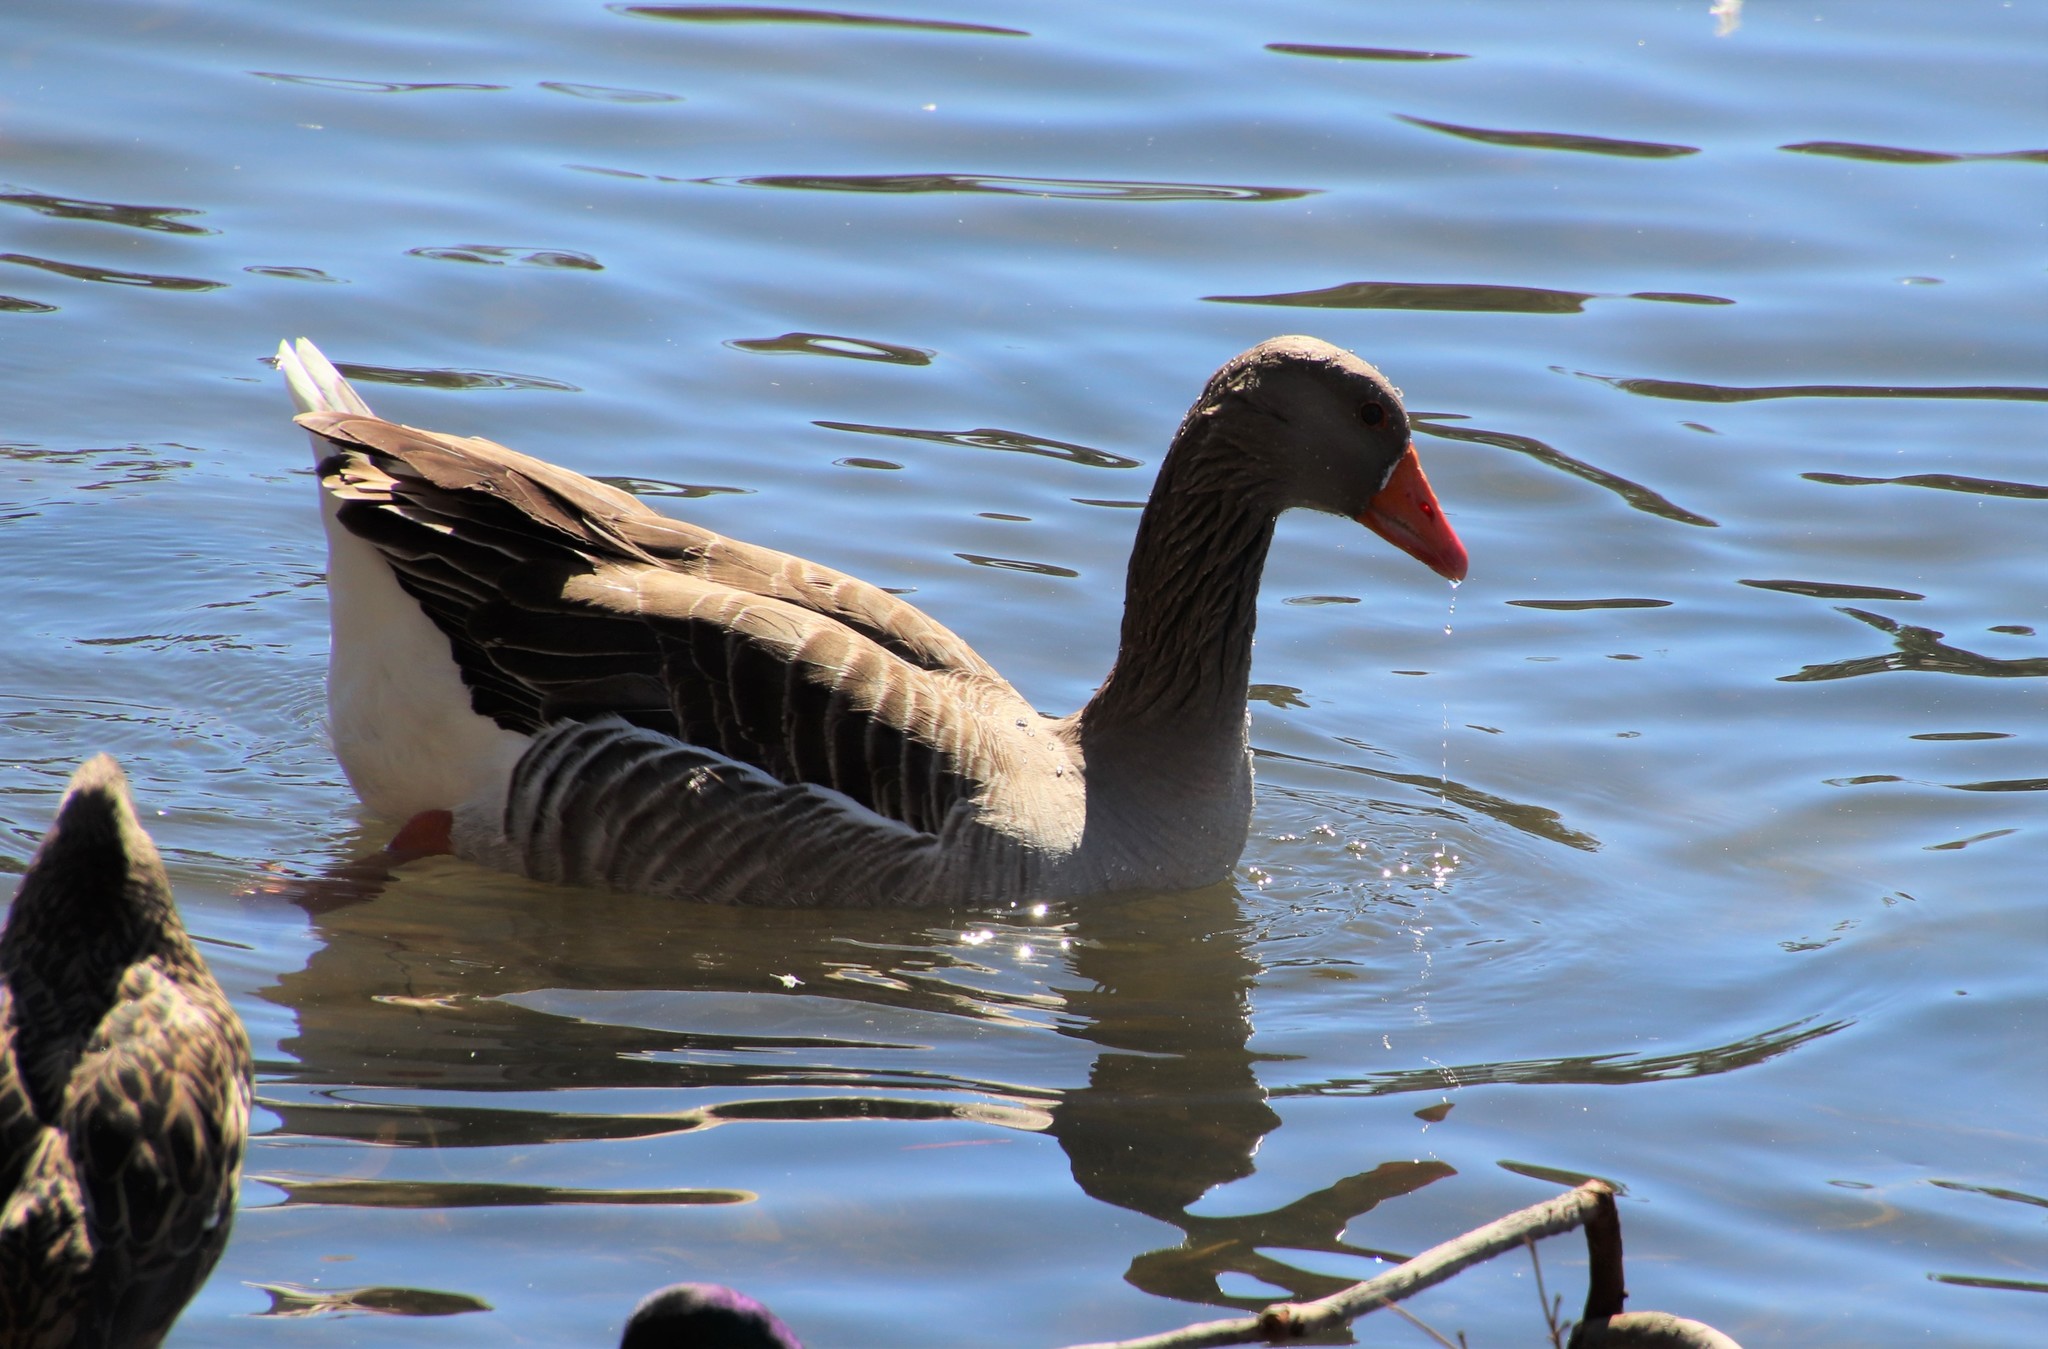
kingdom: Animalia
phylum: Chordata
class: Aves
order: Anseriformes
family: Anatidae
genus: Anser
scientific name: Anser anser
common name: Greylag goose
